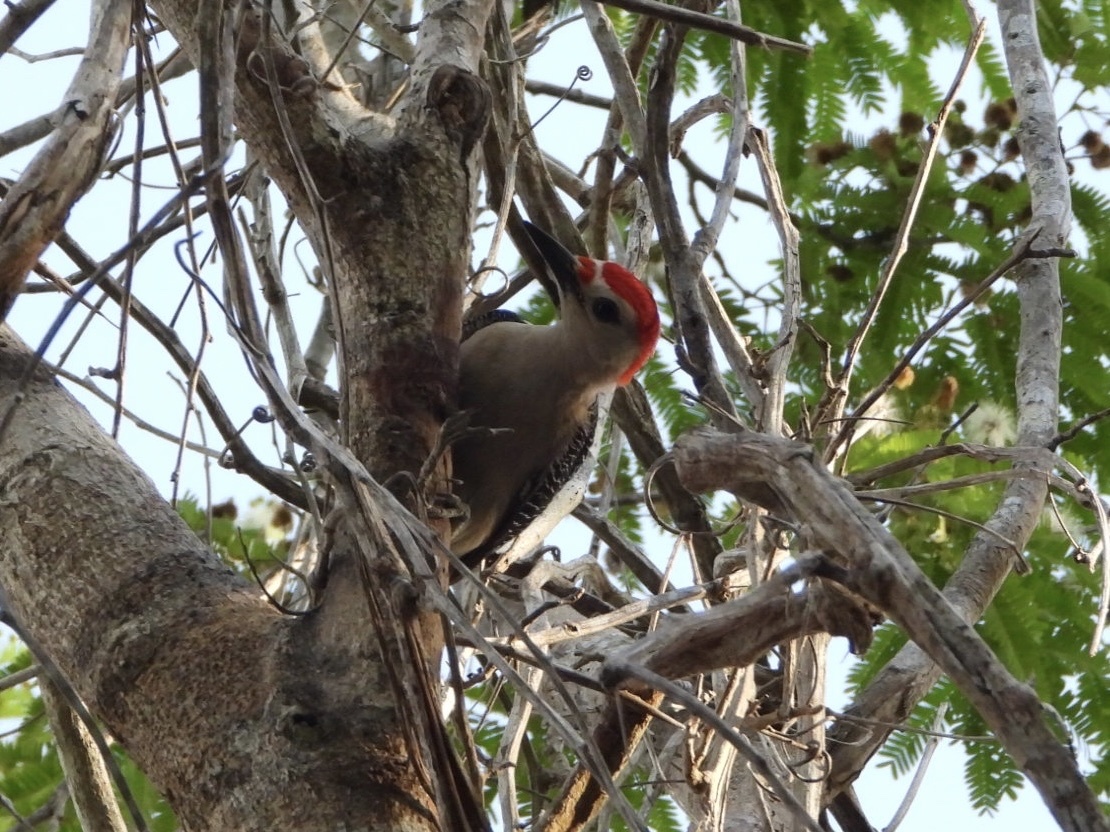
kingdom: Animalia
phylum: Chordata
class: Aves
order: Piciformes
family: Picidae
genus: Melanerpes
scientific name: Melanerpes santacruzi
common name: Velasquez's woodpecker
